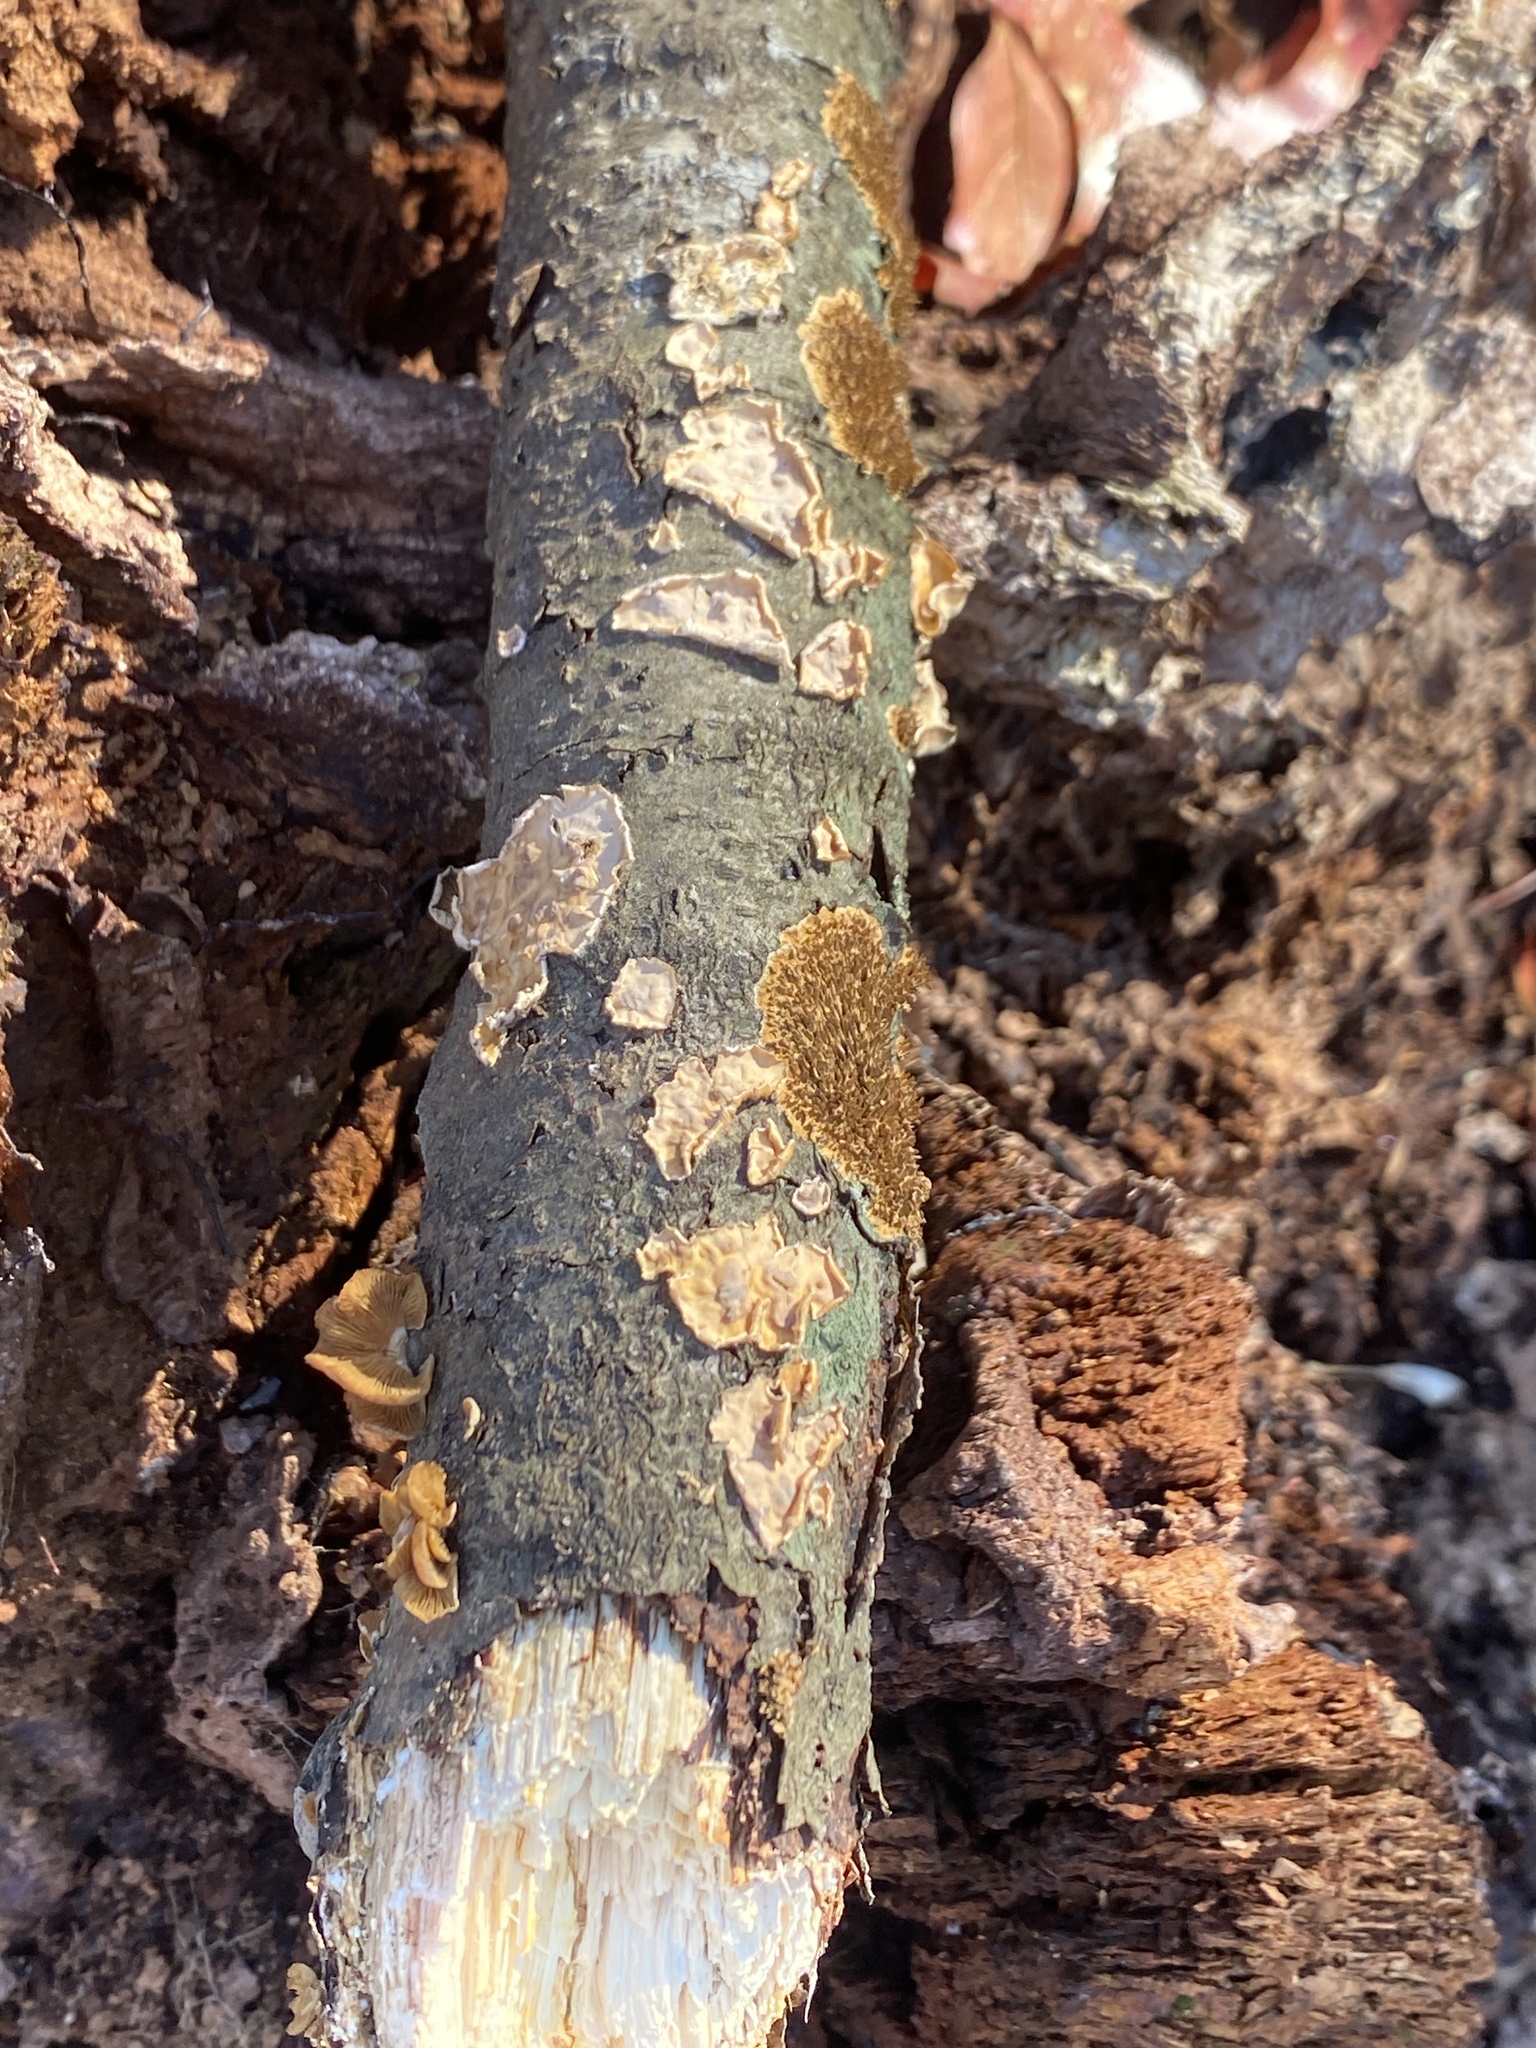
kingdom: Fungi
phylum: Basidiomycota
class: Agaricomycetes
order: Agaricales
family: Mycenaceae
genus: Panellus
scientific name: Panellus stipticus
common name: Bitter oysterling
